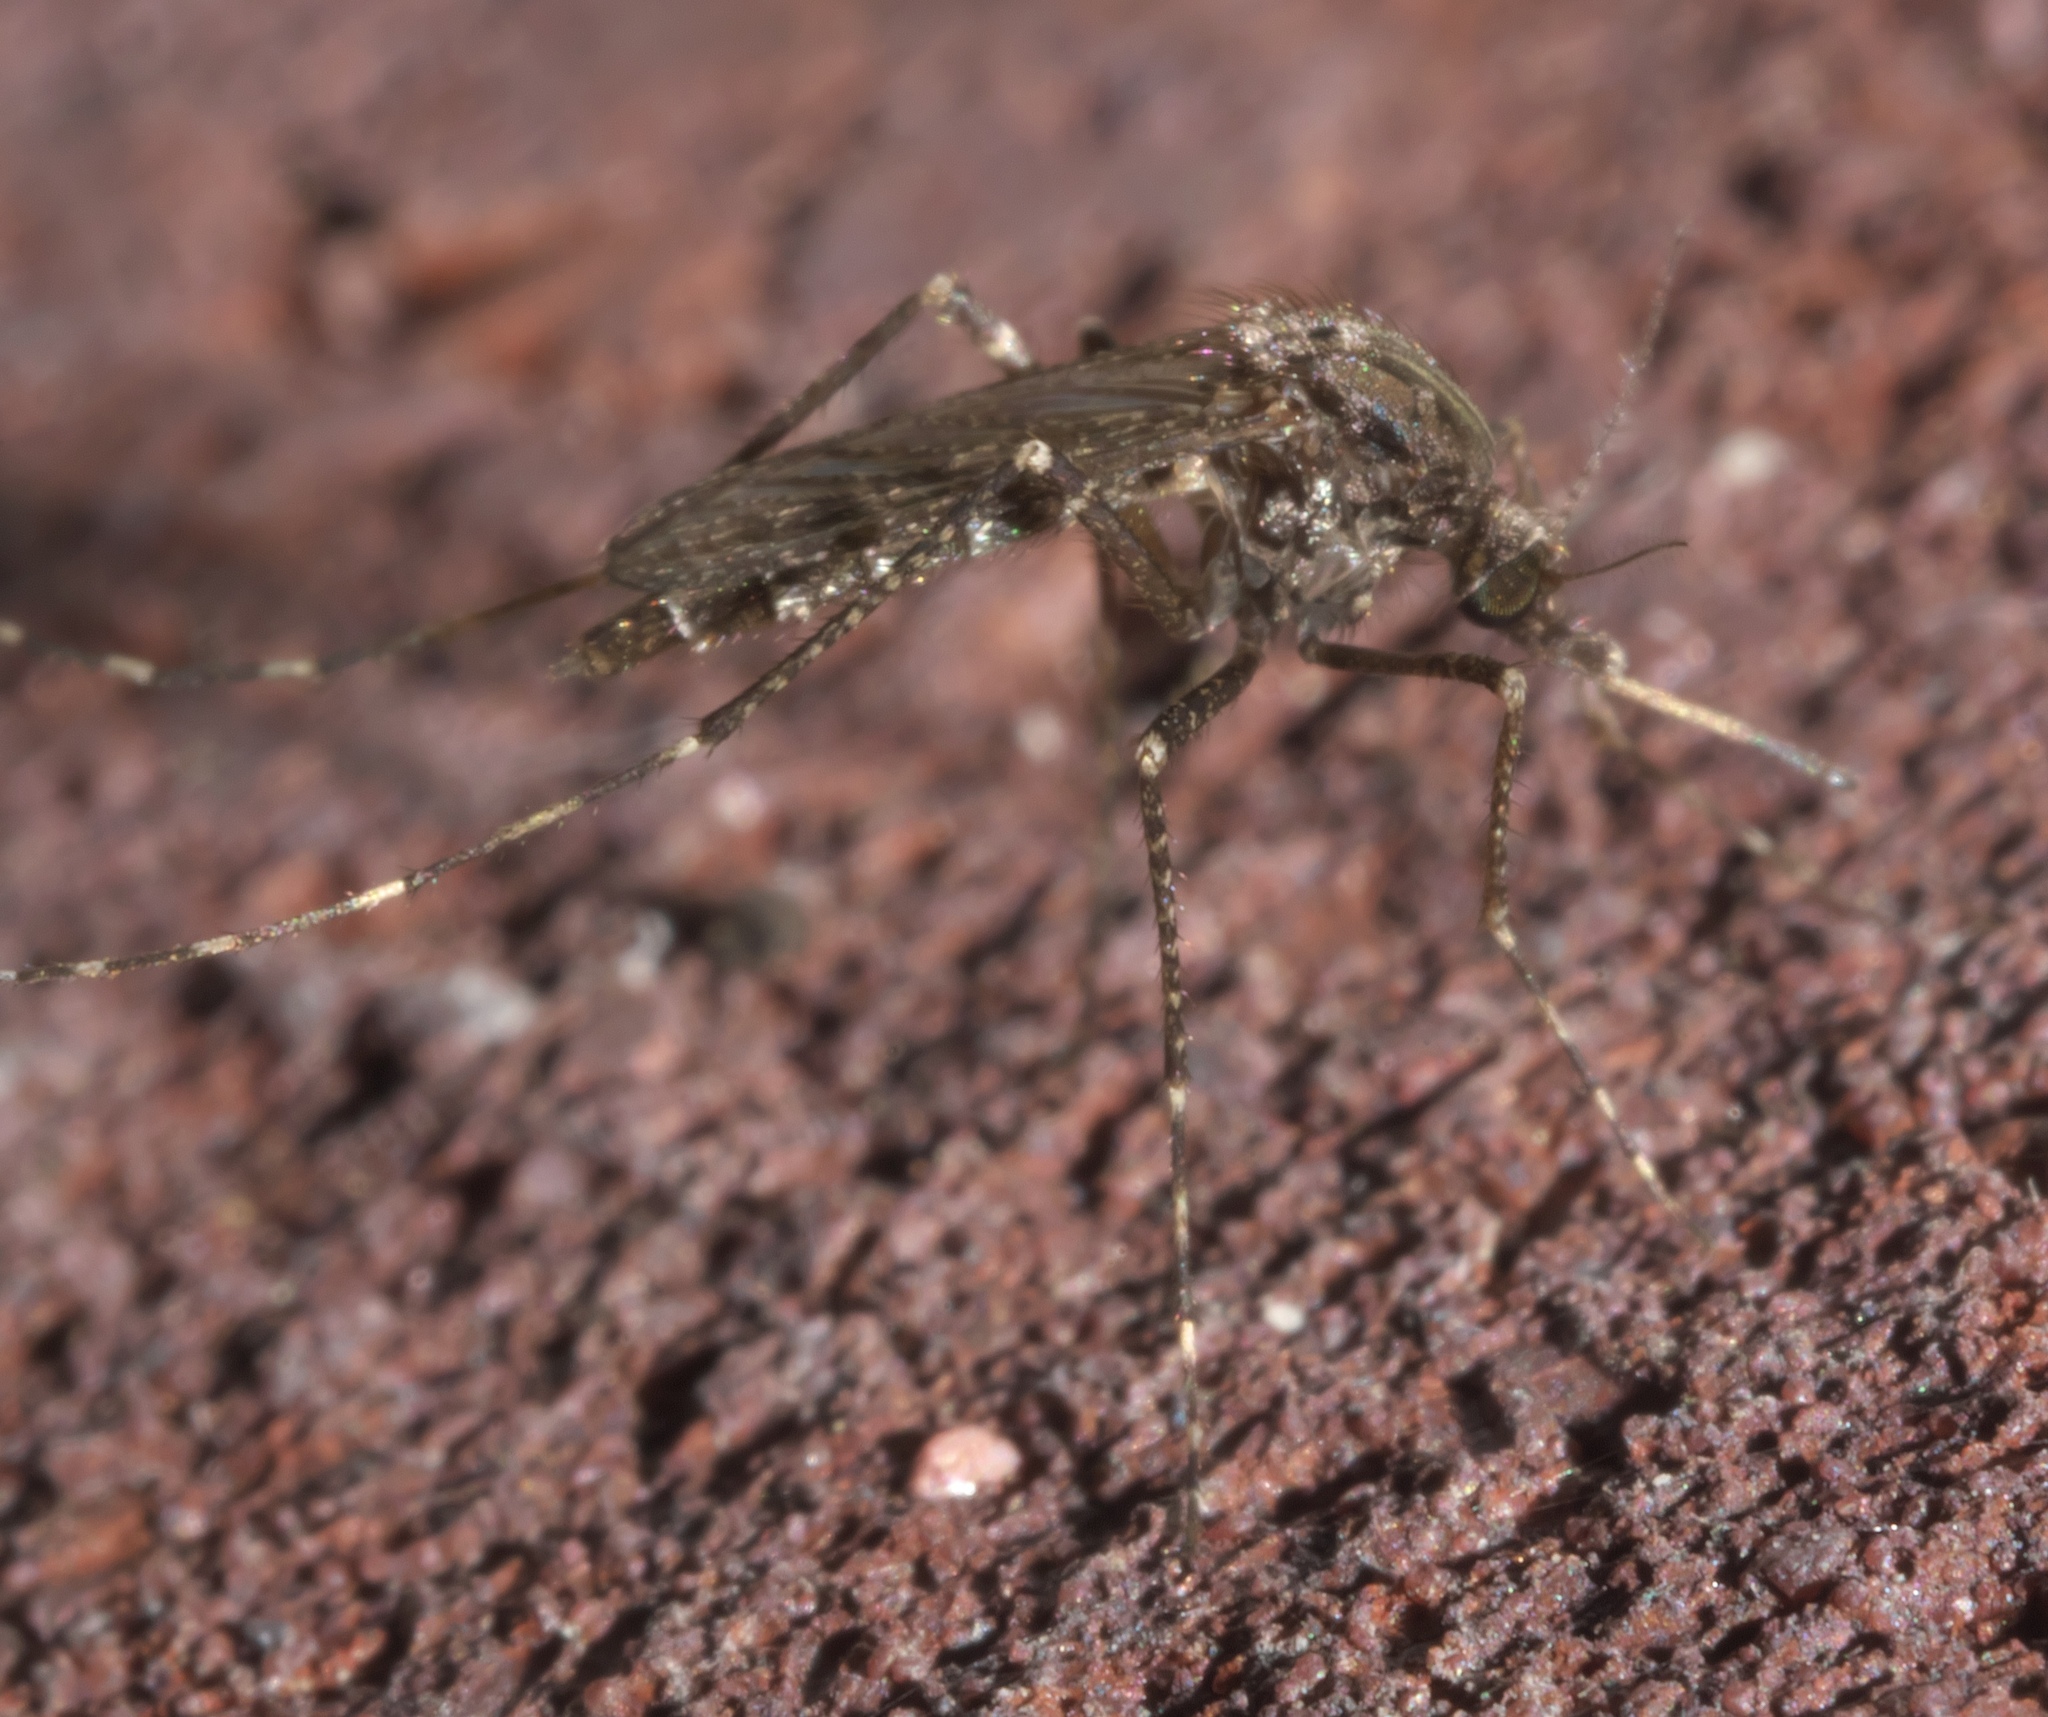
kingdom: Animalia
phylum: Arthropoda
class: Insecta
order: Diptera
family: Culicidae
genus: Psorophora
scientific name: Psorophora columbiae
